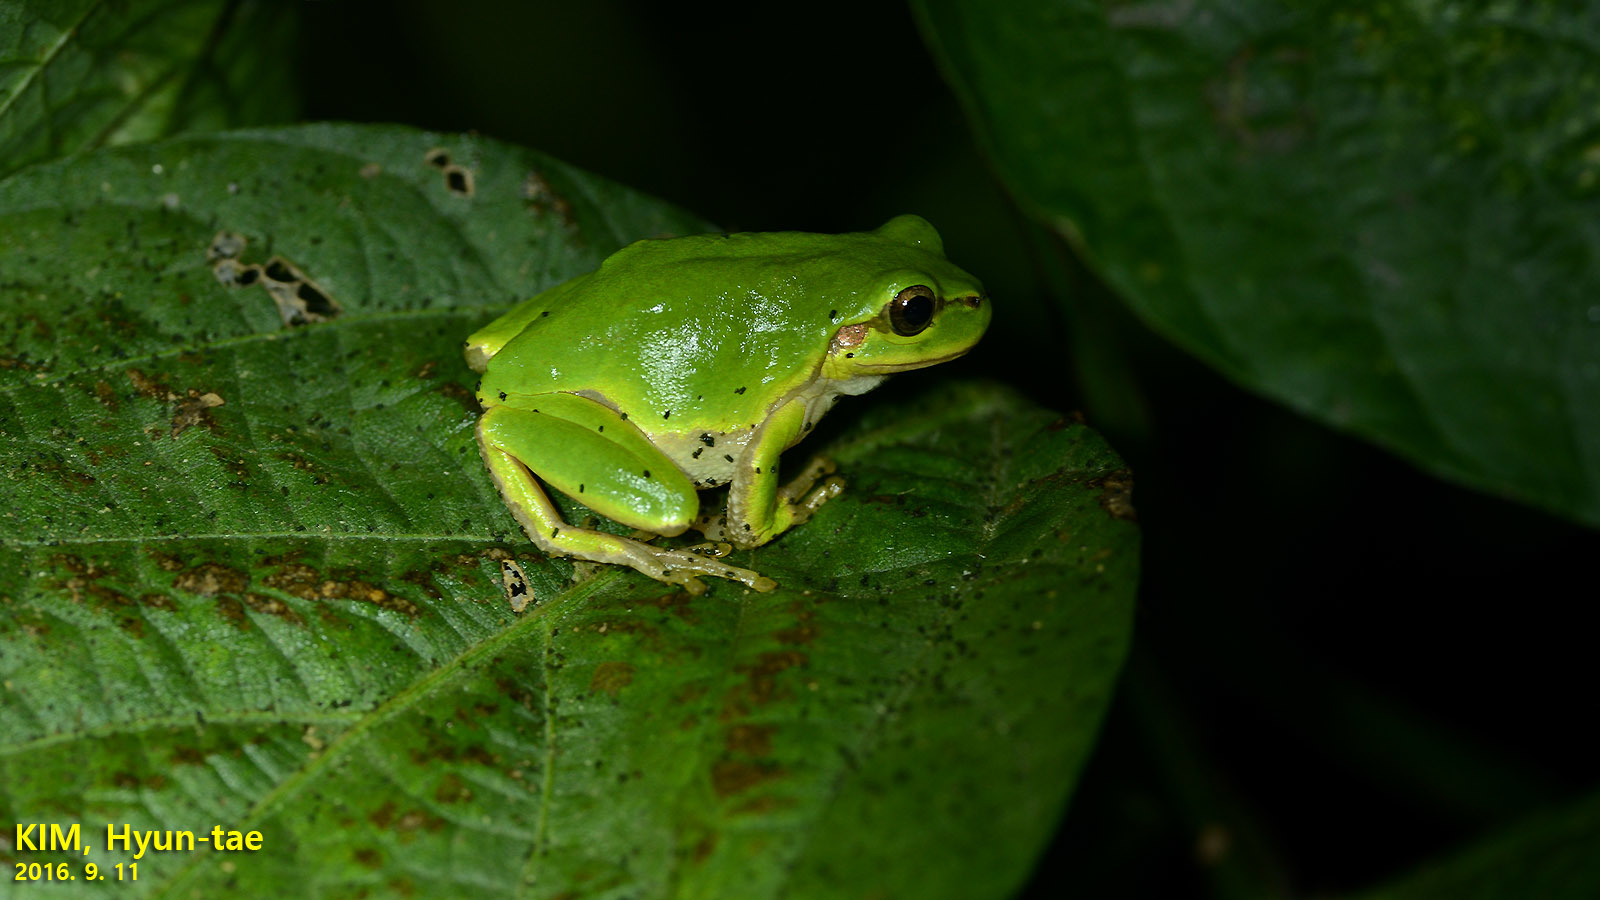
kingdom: Animalia
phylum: Chordata
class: Amphibia
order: Anura
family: Hylidae
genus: Dryophytes
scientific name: Dryophytes japonicus
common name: Japanese treefrog
